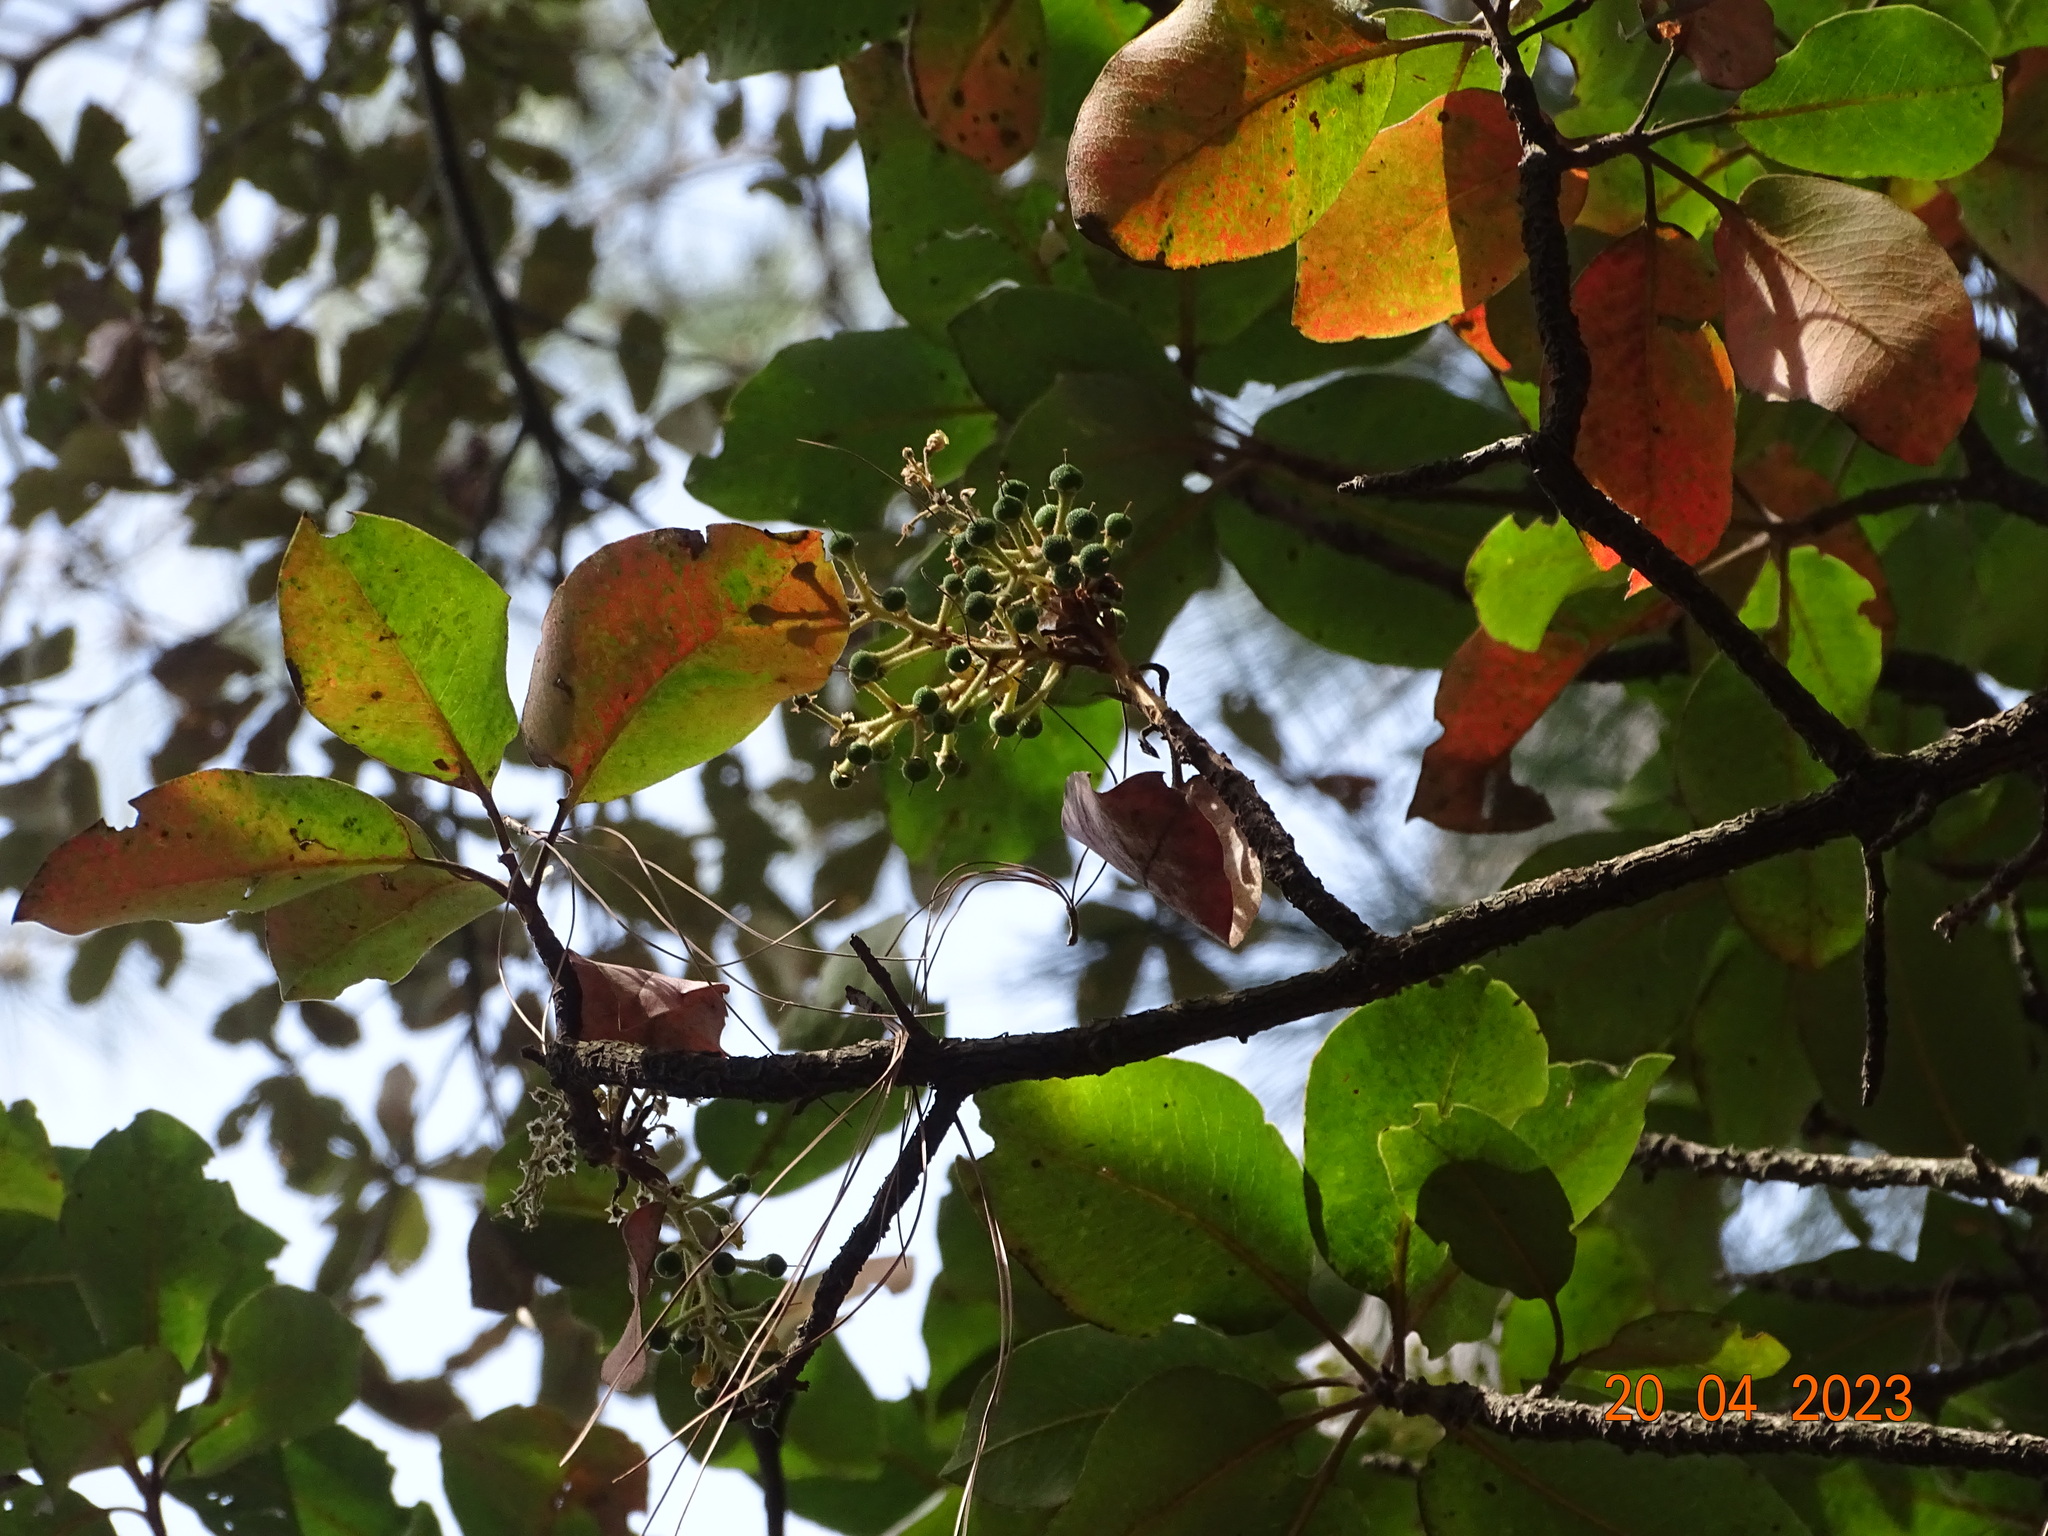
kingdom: Plantae
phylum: Tracheophyta
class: Magnoliopsida
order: Ericales
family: Ericaceae
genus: Arbutus
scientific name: Arbutus madrensis
